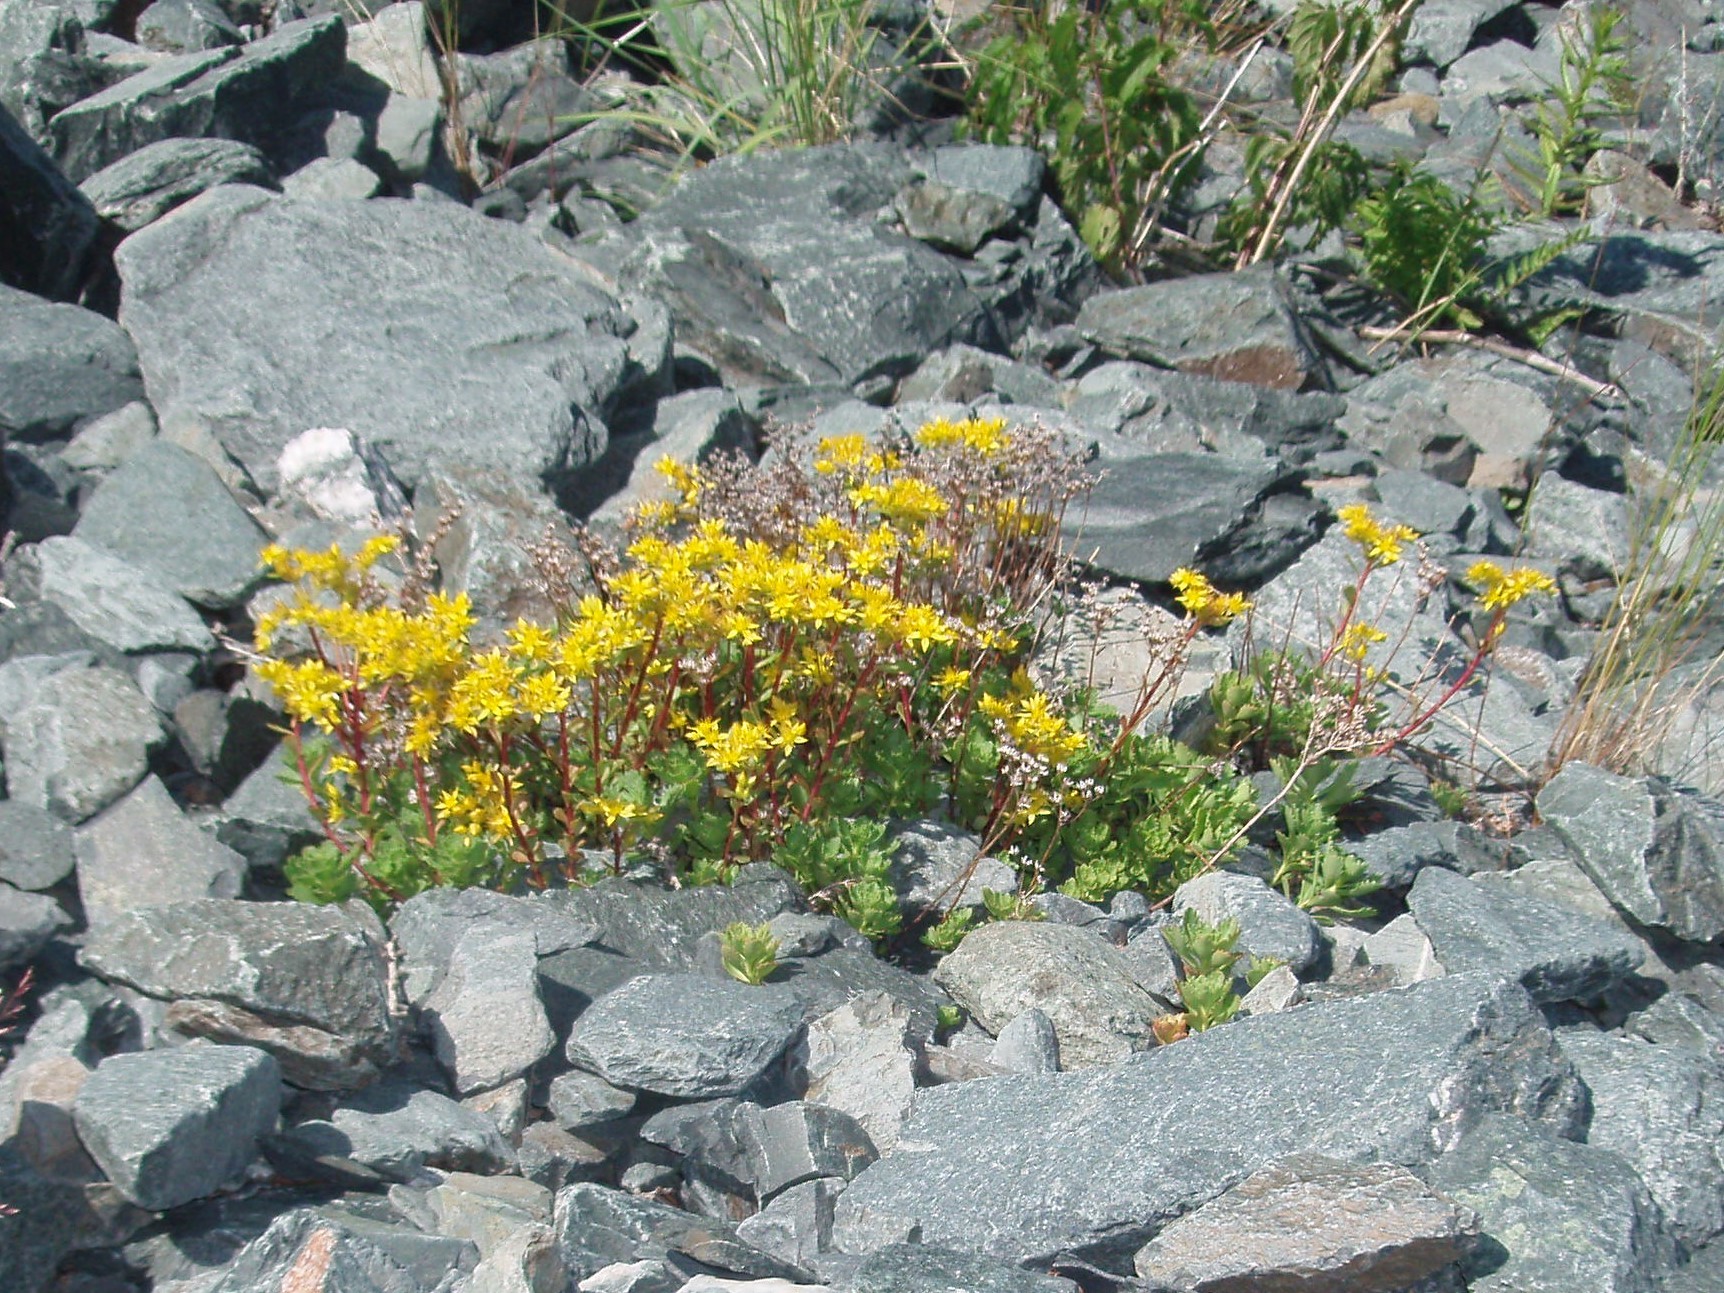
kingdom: Plantae
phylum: Tracheophyta
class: Magnoliopsida
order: Saxifragales
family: Crassulaceae
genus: Phedimus
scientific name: Phedimus hybridus
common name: Hybrid stonecrop
